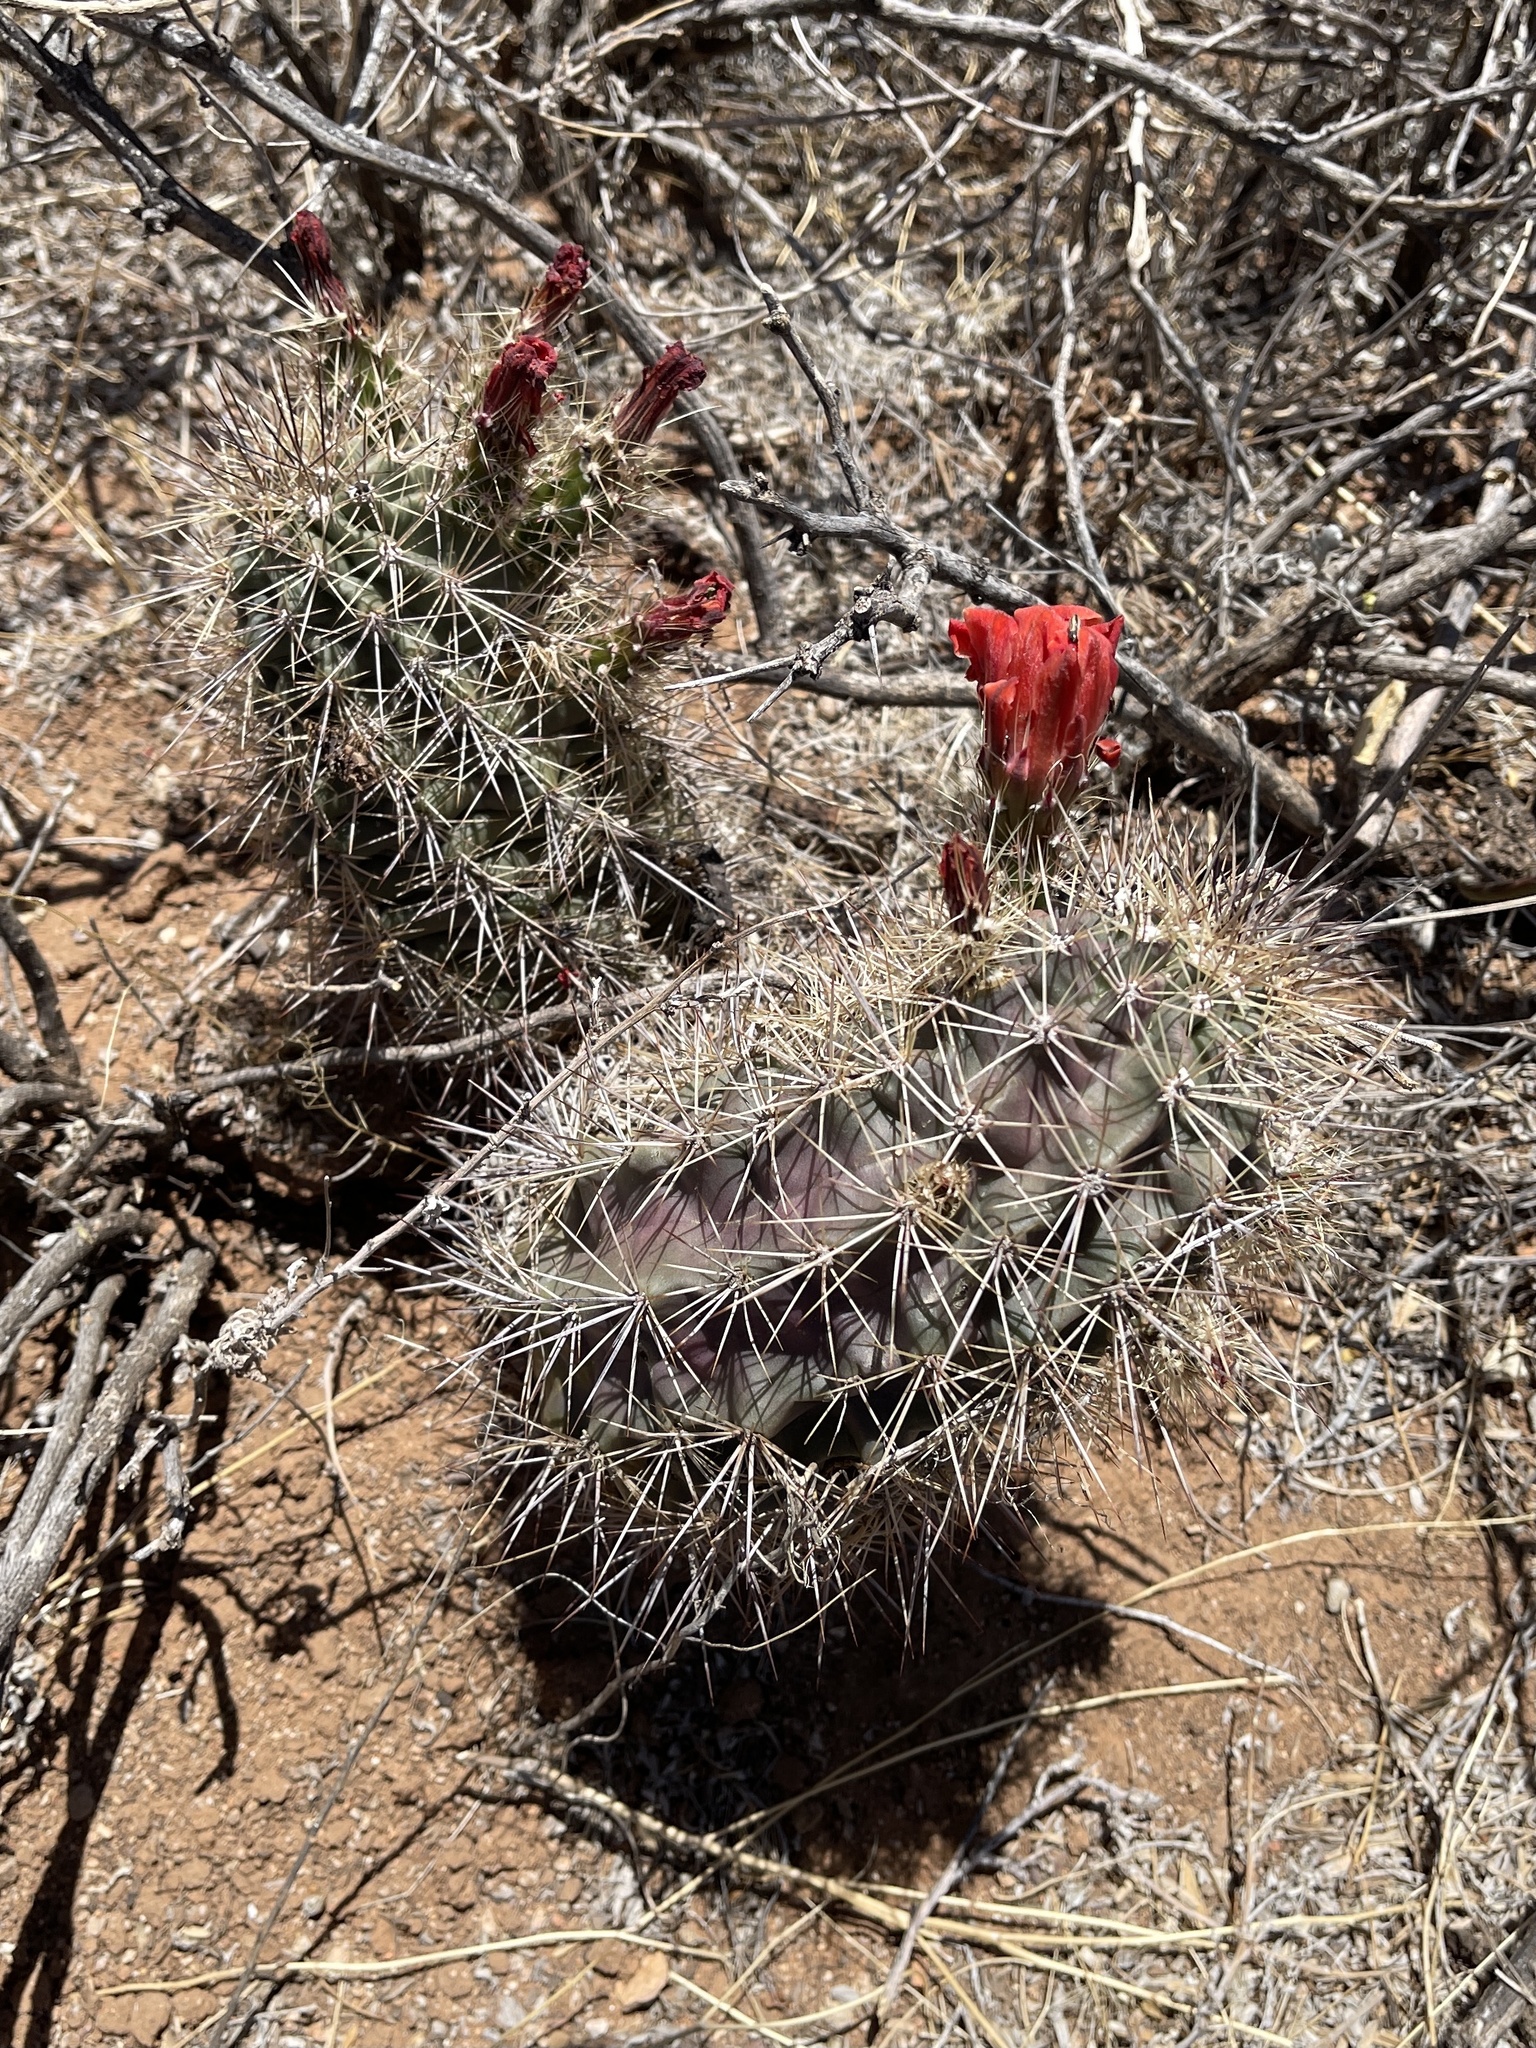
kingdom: Plantae
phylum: Tracheophyta
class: Magnoliopsida
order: Caryophyllales
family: Cactaceae
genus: Echinocereus
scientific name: Echinocereus coccineus
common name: Scarlet hedgehog cactus
